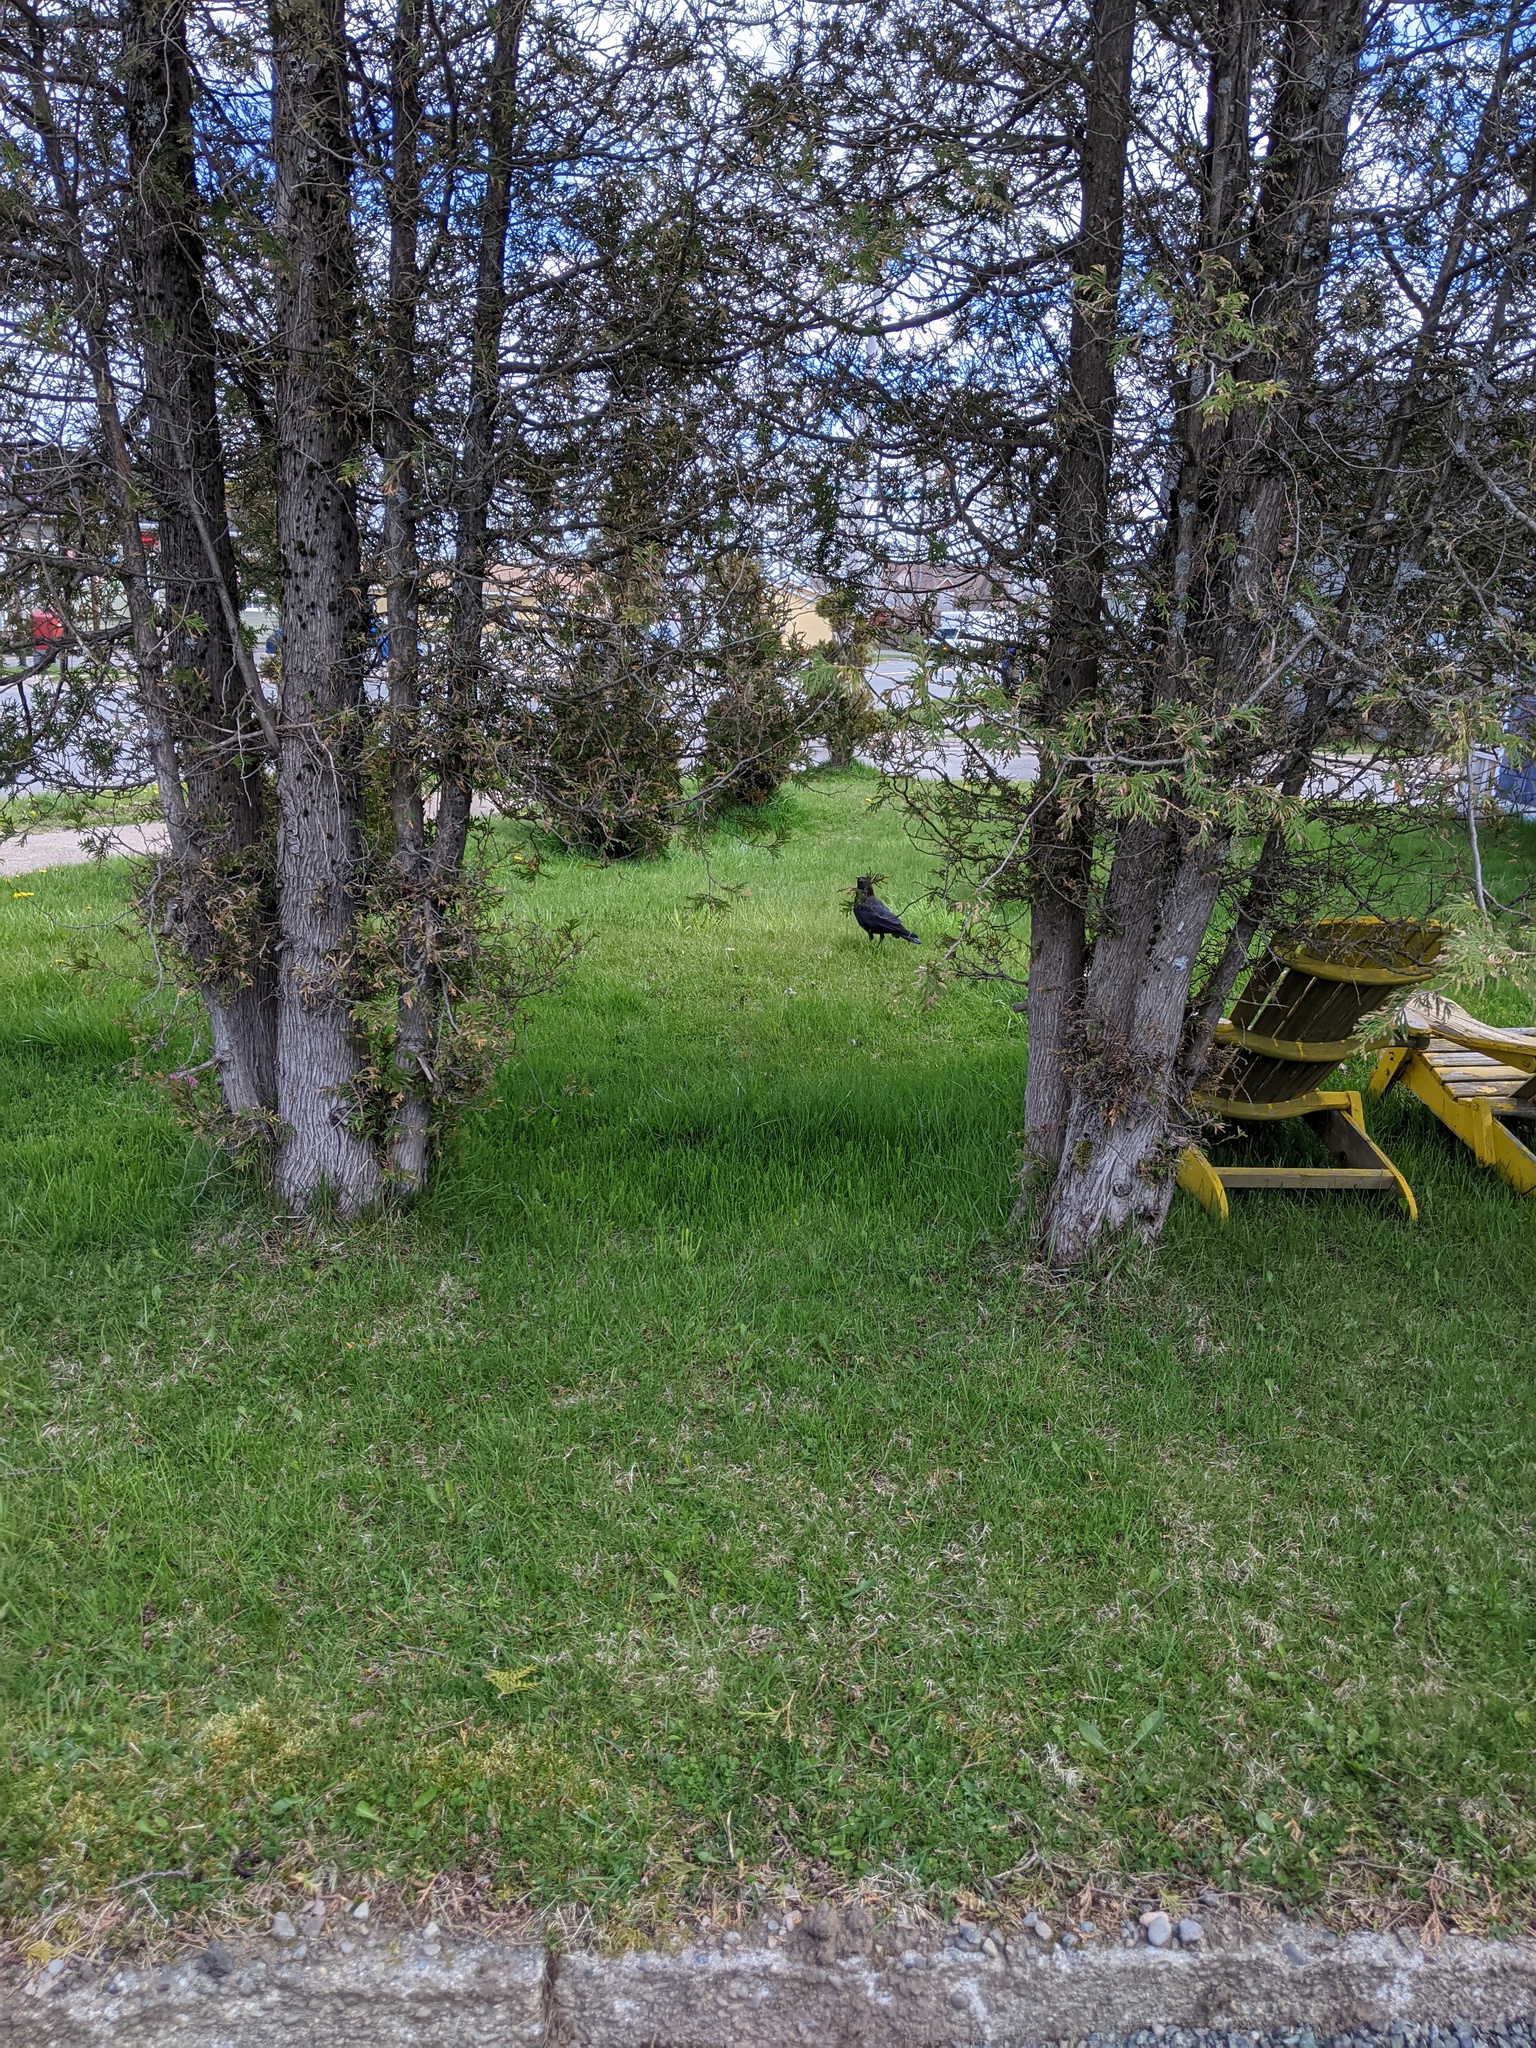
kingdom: Animalia
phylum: Chordata
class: Aves
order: Passeriformes
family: Corvidae
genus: Corvus
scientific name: Corvus brachyrhynchos
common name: American crow
